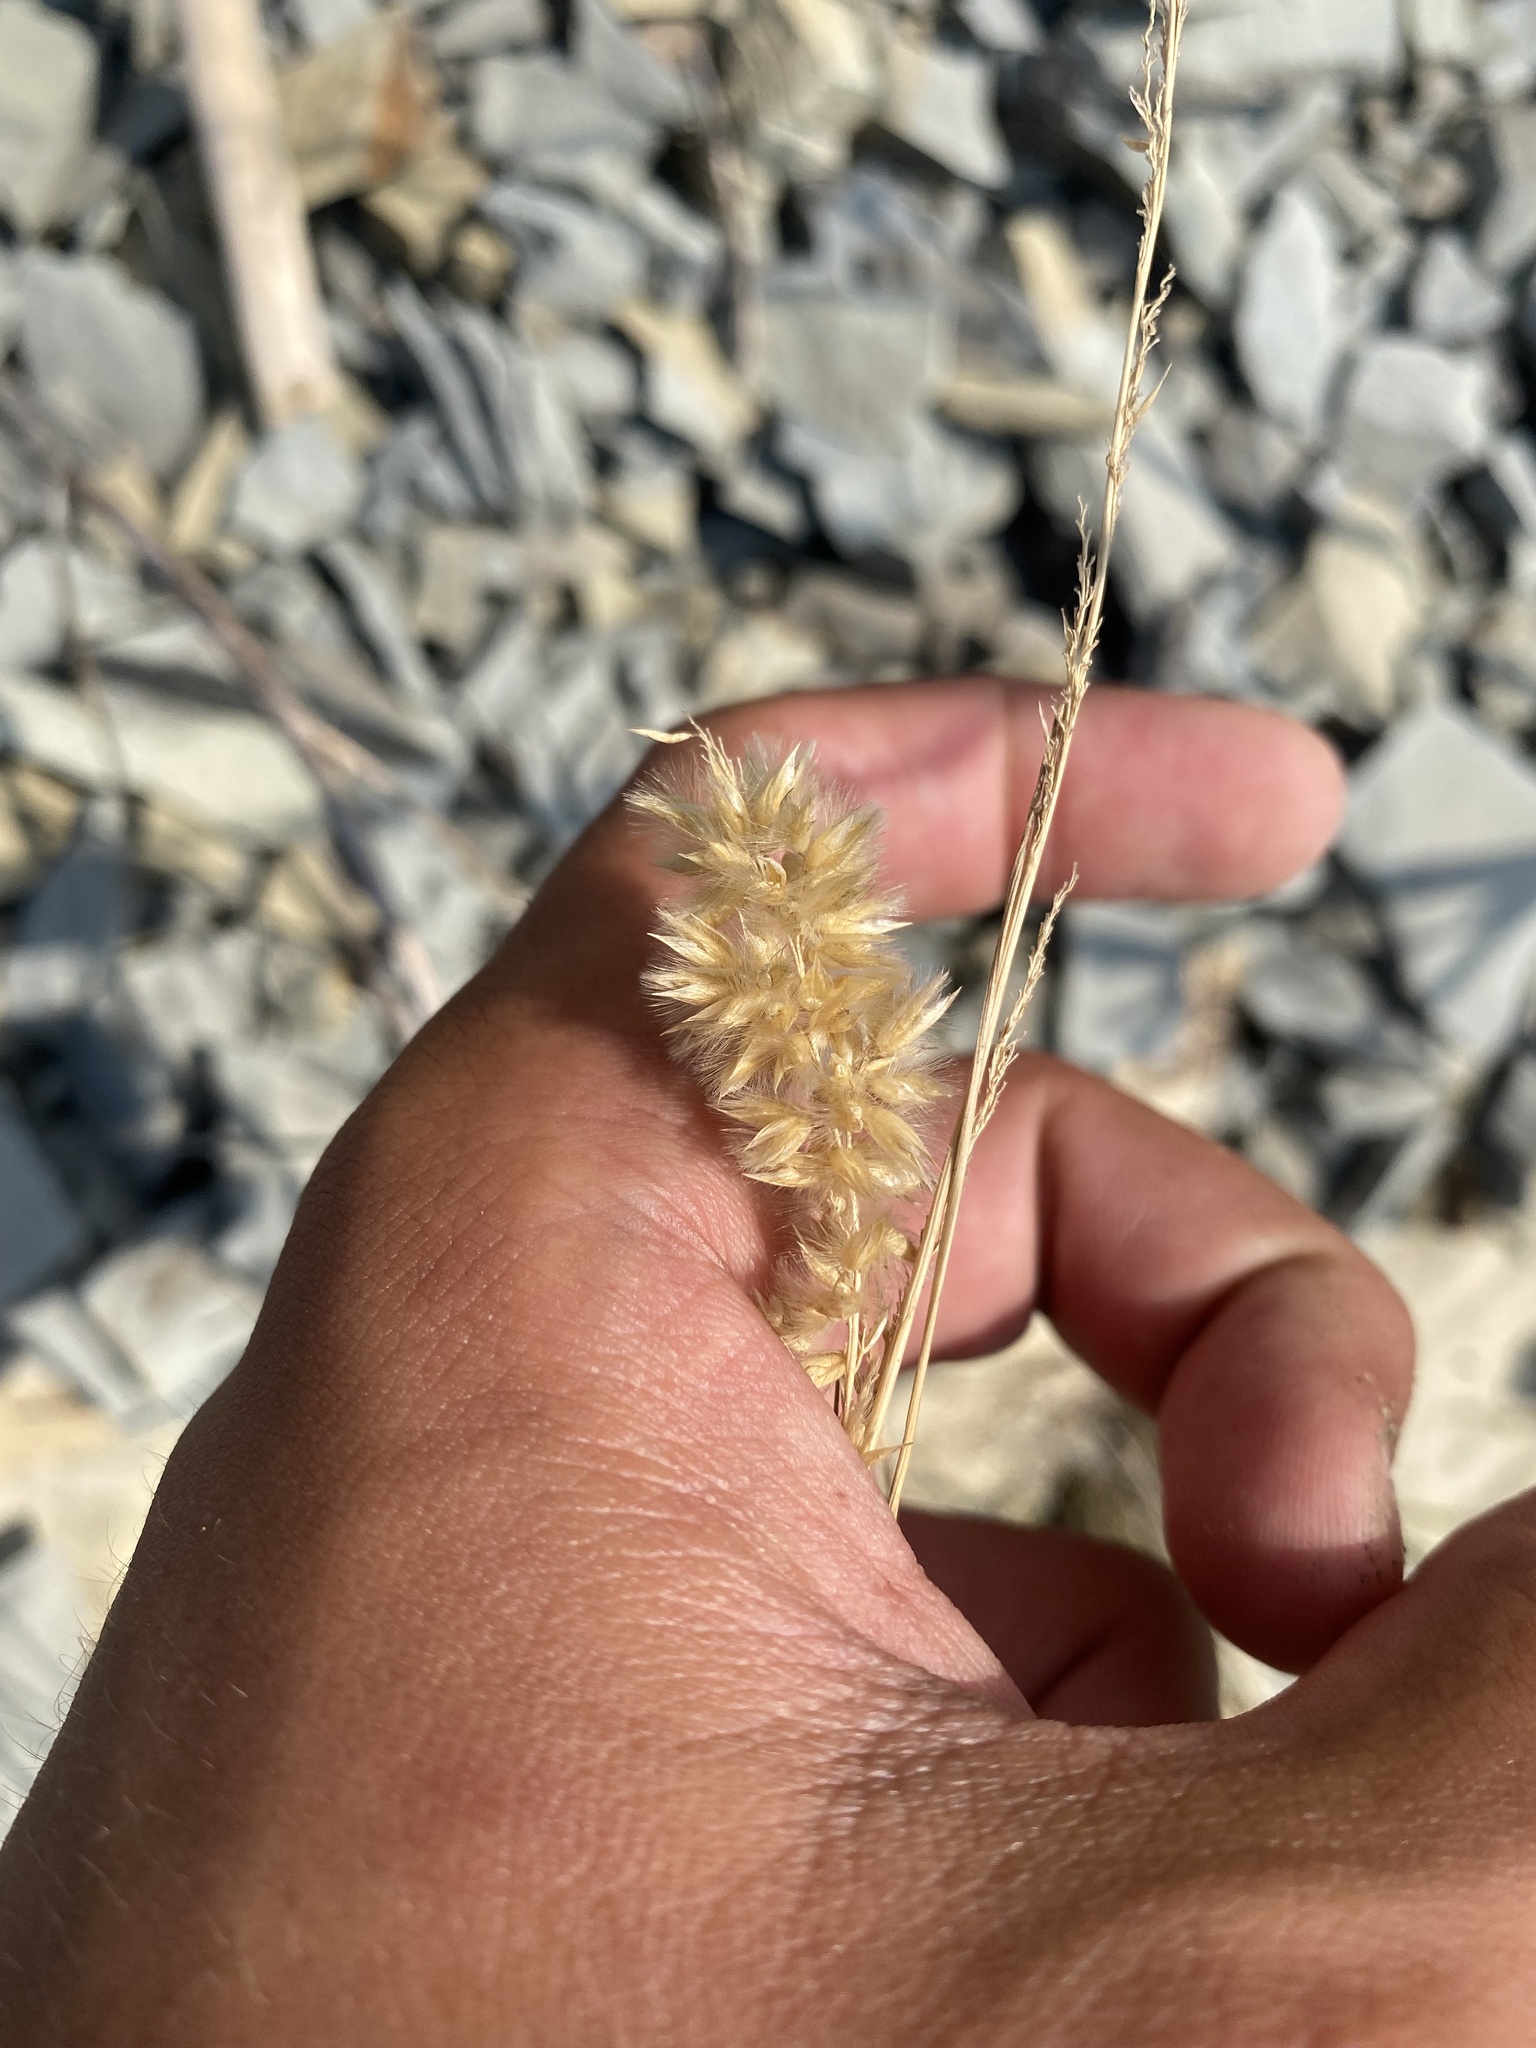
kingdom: Plantae
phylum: Tracheophyta
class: Liliopsida
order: Poales
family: Poaceae
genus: Melica
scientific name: Melica transsilvanica
